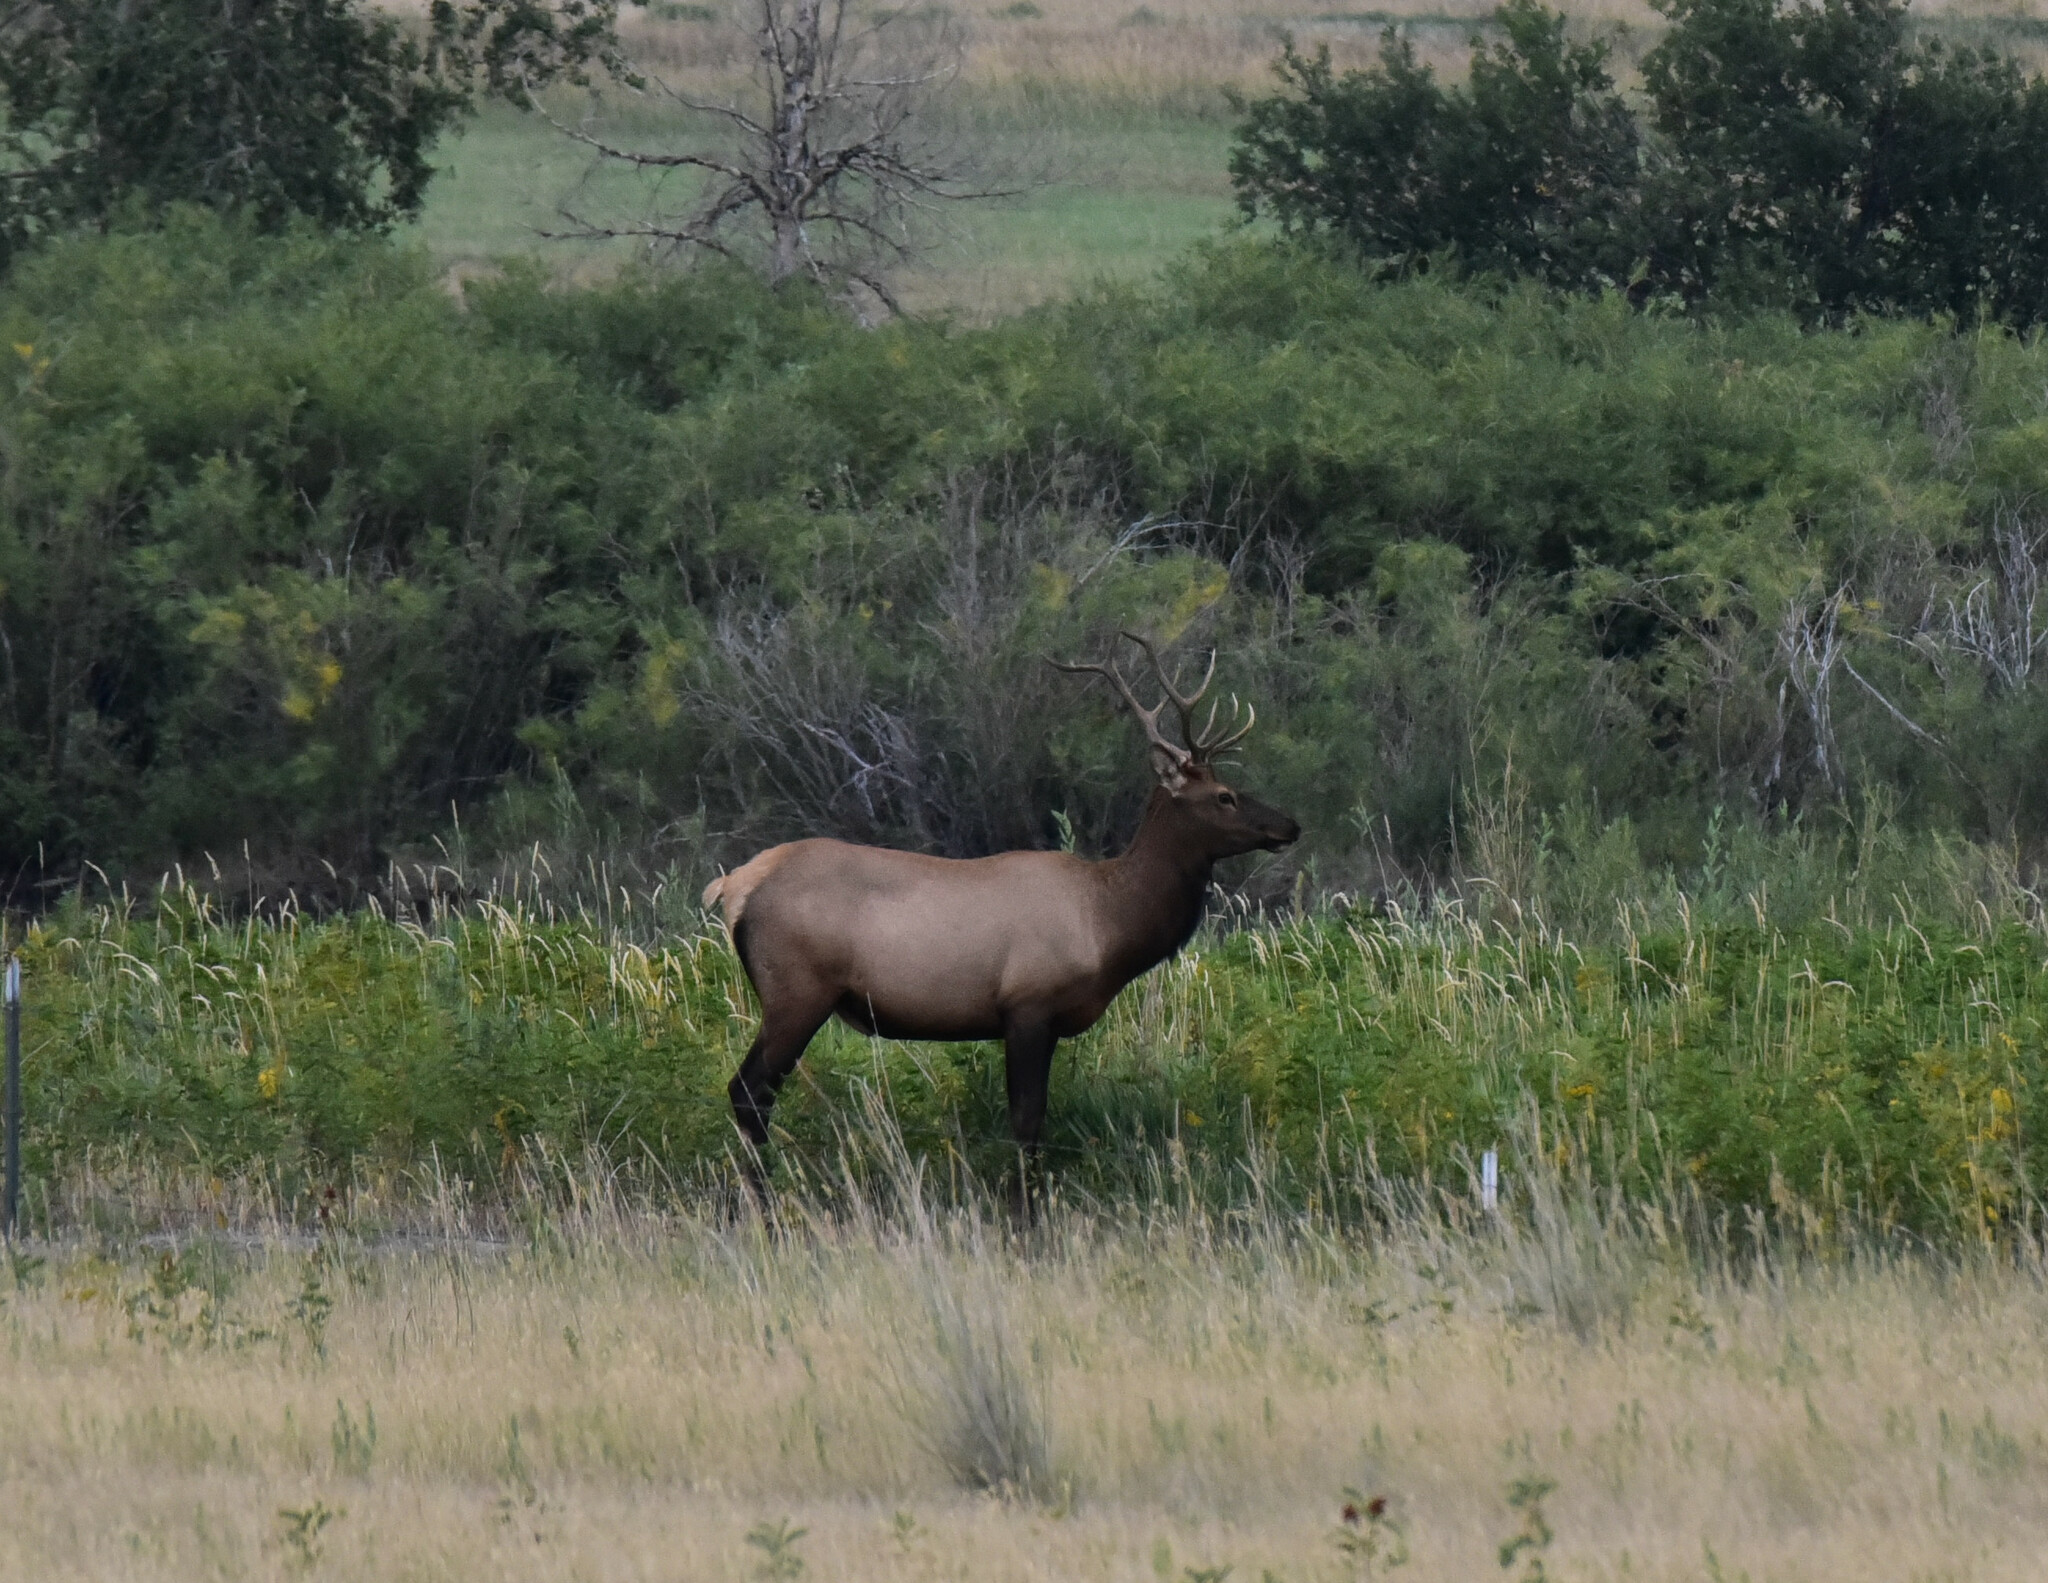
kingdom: Animalia
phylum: Chordata
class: Mammalia
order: Artiodactyla
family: Cervidae
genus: Cervus
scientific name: Cervus elaphus
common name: Red deer
